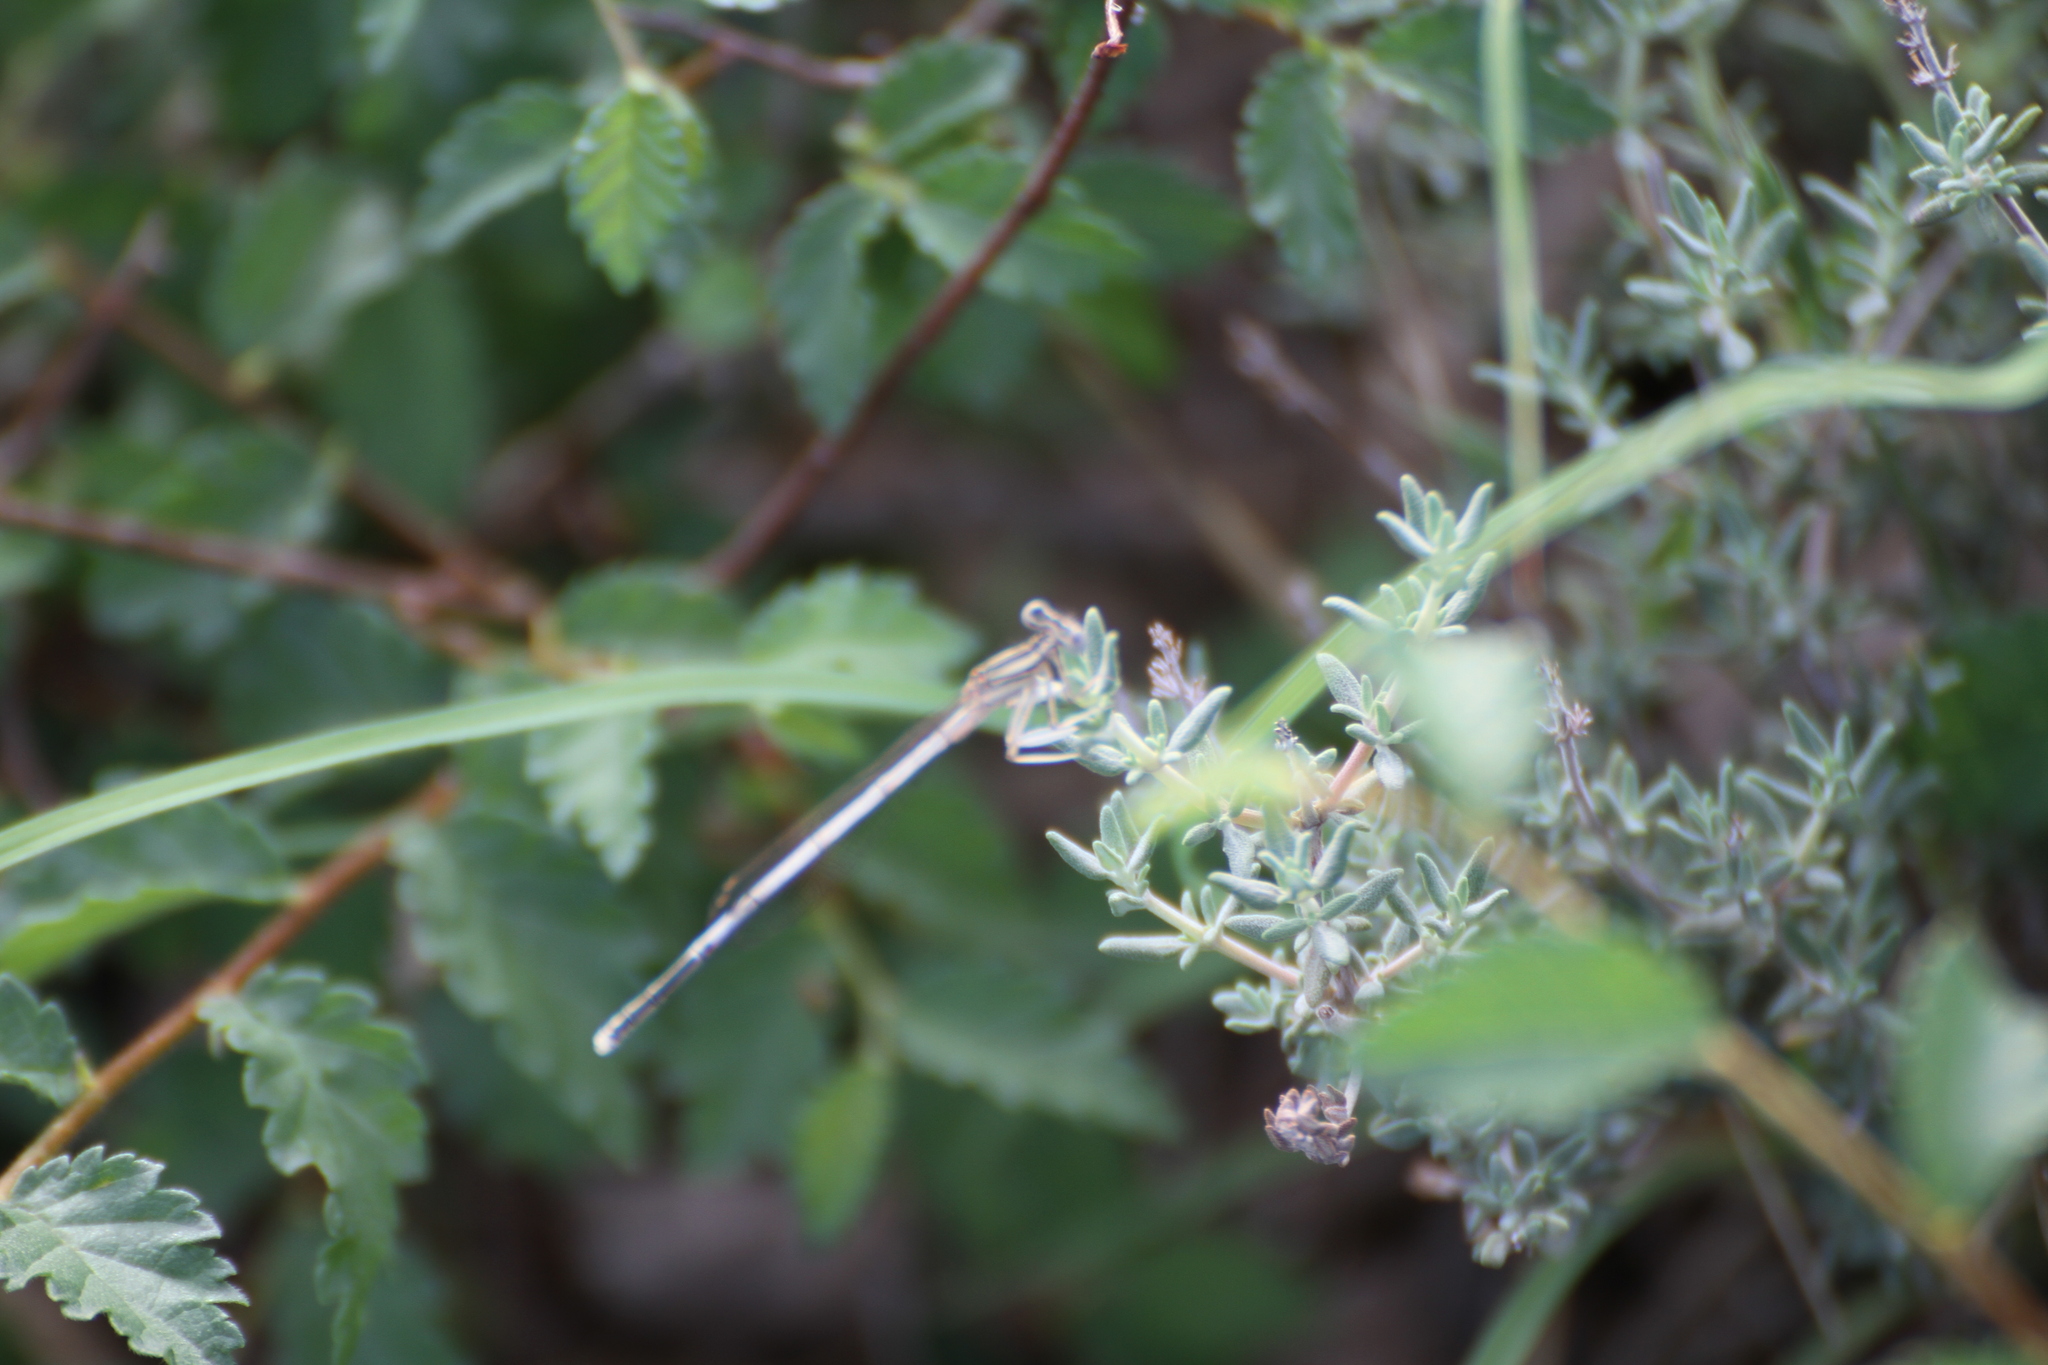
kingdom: Animalia
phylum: Arthropoda
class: Insecta
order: Odonata
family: Platycnemididae
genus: Platycnemis
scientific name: Platycnemis latipes
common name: White featherleg
